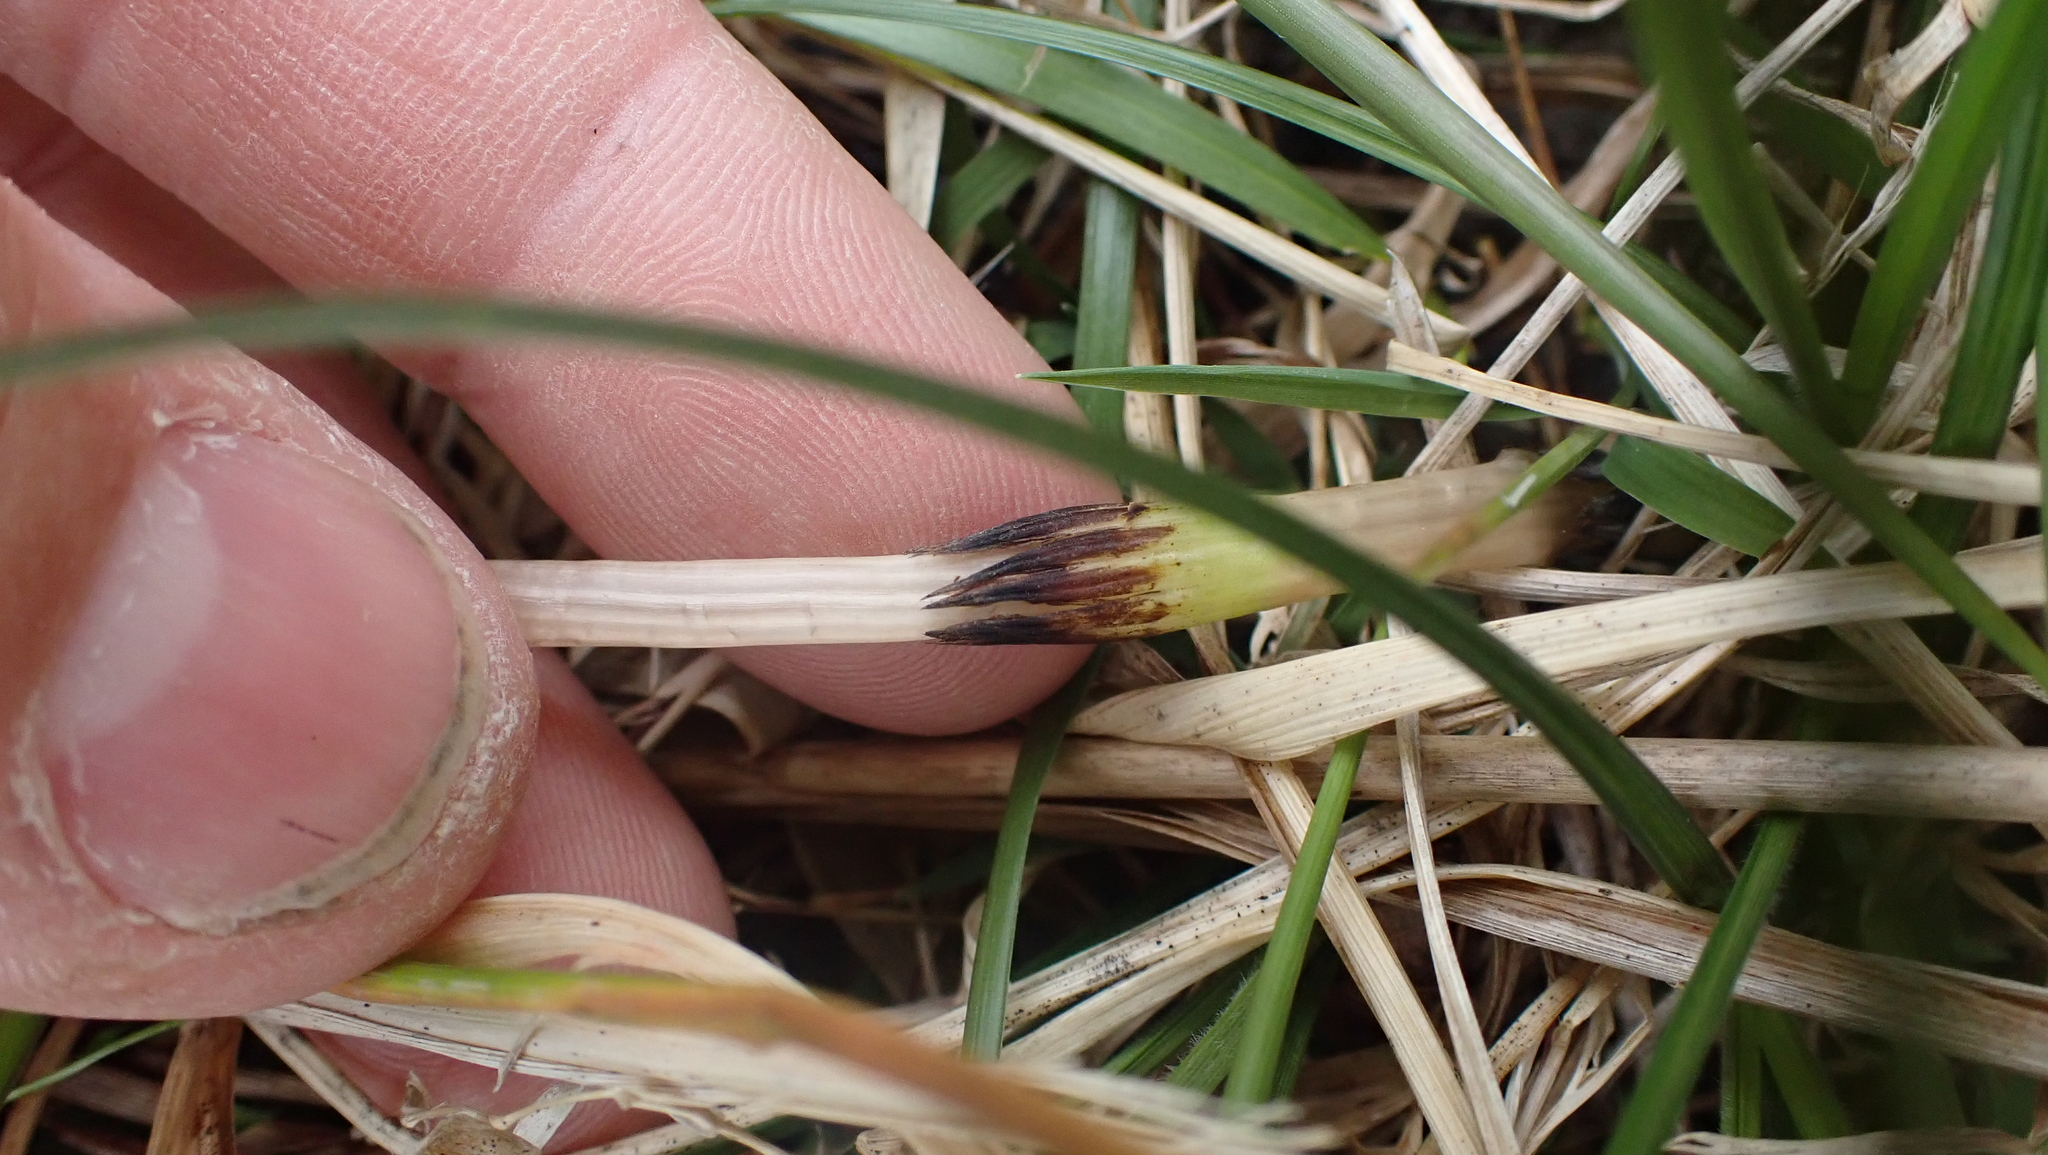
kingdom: Plantae
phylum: Tracheophyta
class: Polypodiopsida
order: Equisetales
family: Equisetaceae
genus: Equisetum
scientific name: Equisetum arvense
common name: Field horsetail
